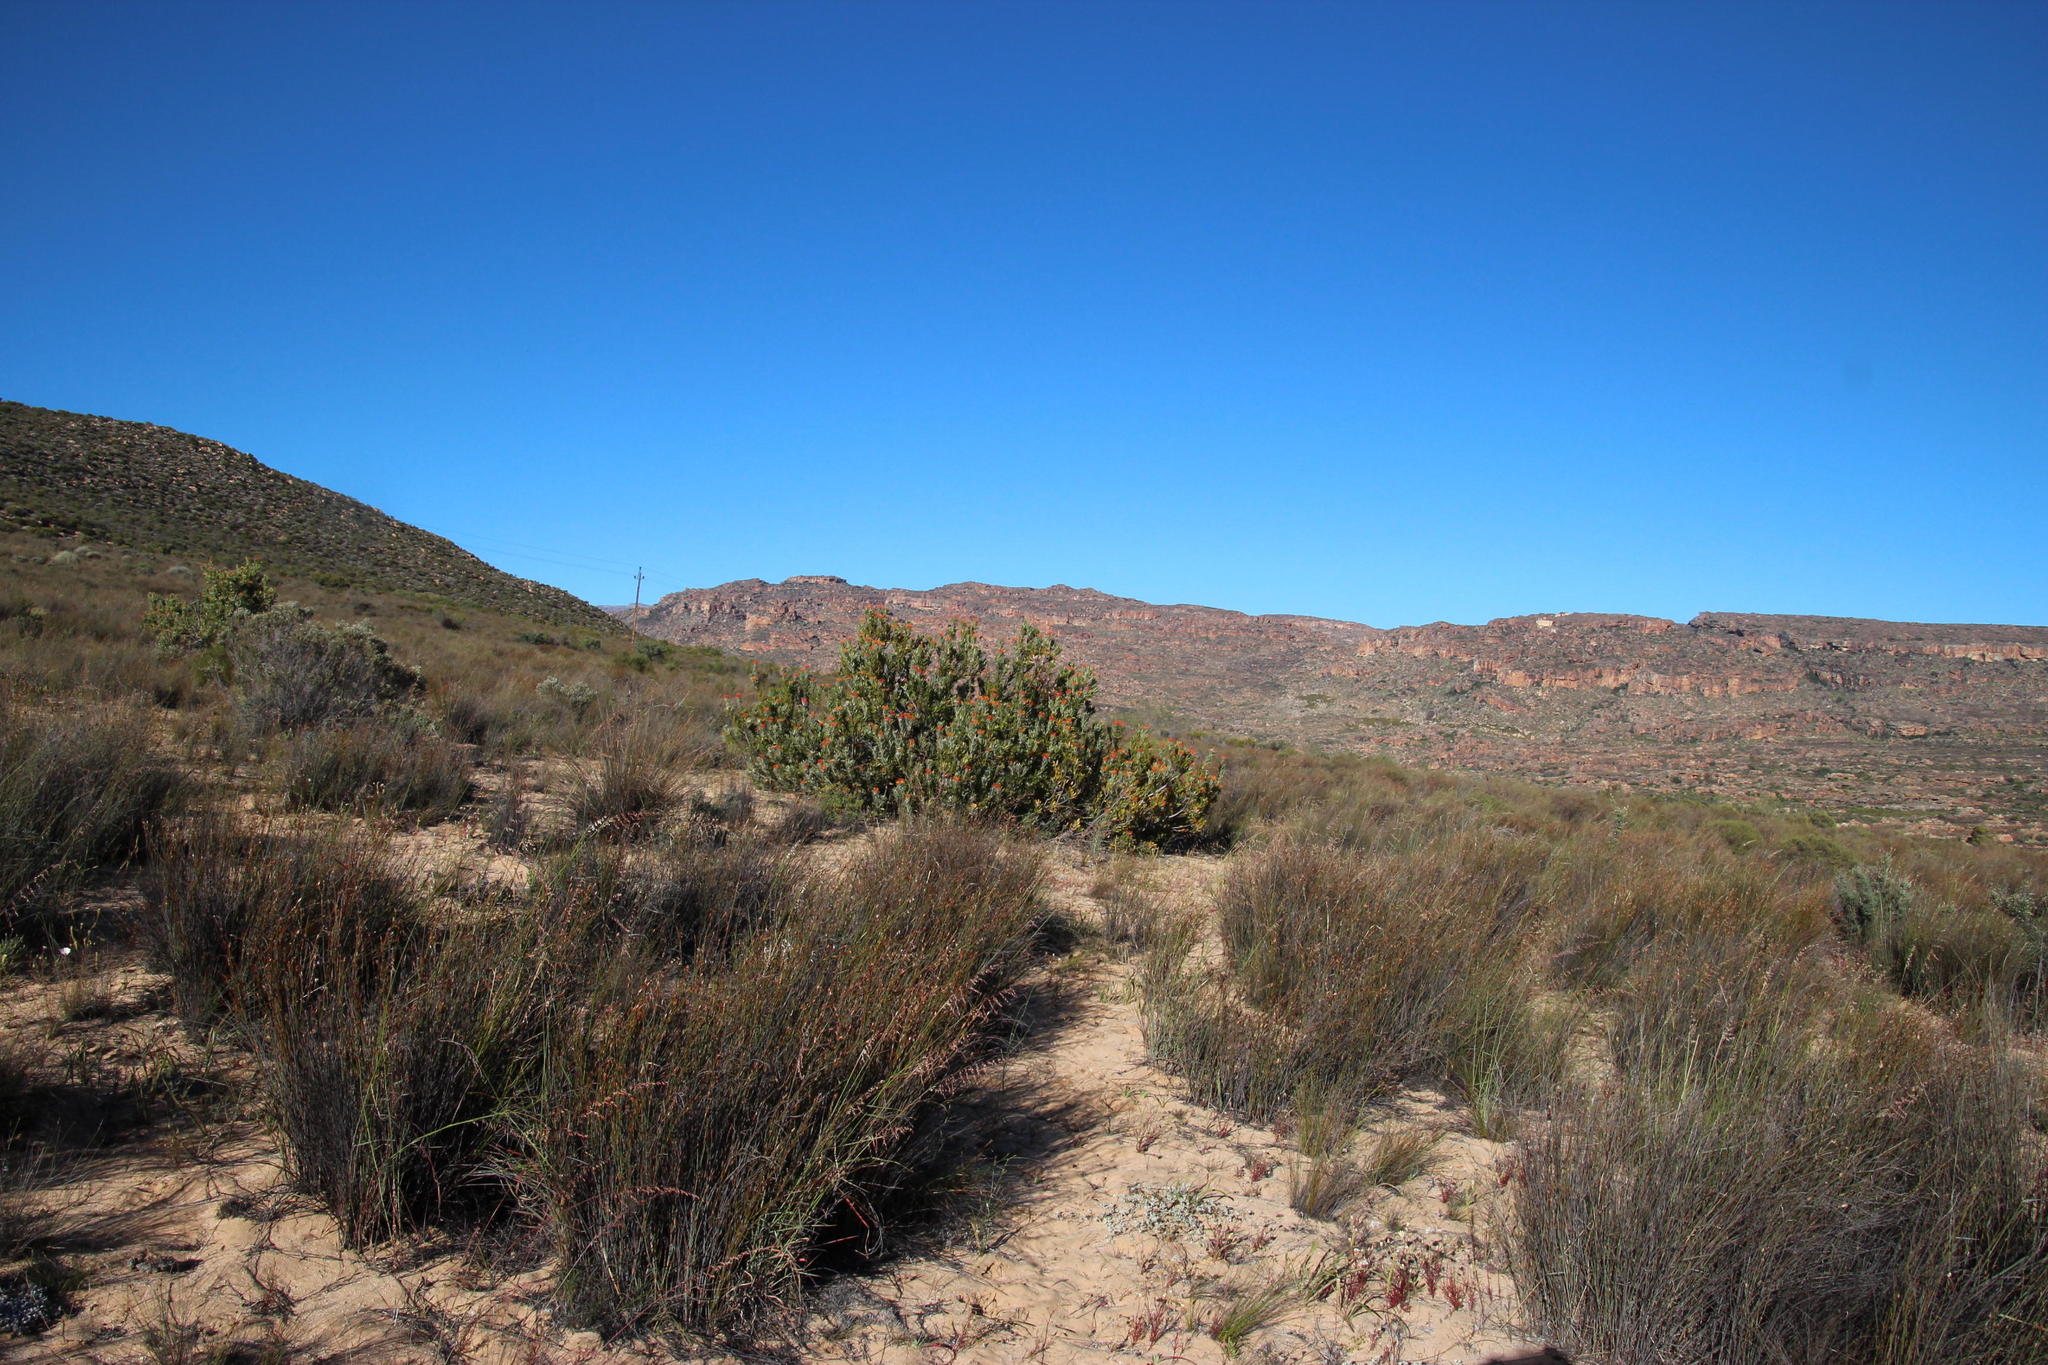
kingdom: Plantae
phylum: Tracheophyta
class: Liliopsida
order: Poales
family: Restionaceae
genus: Willdenowia
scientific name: Willdenowia incurvata
